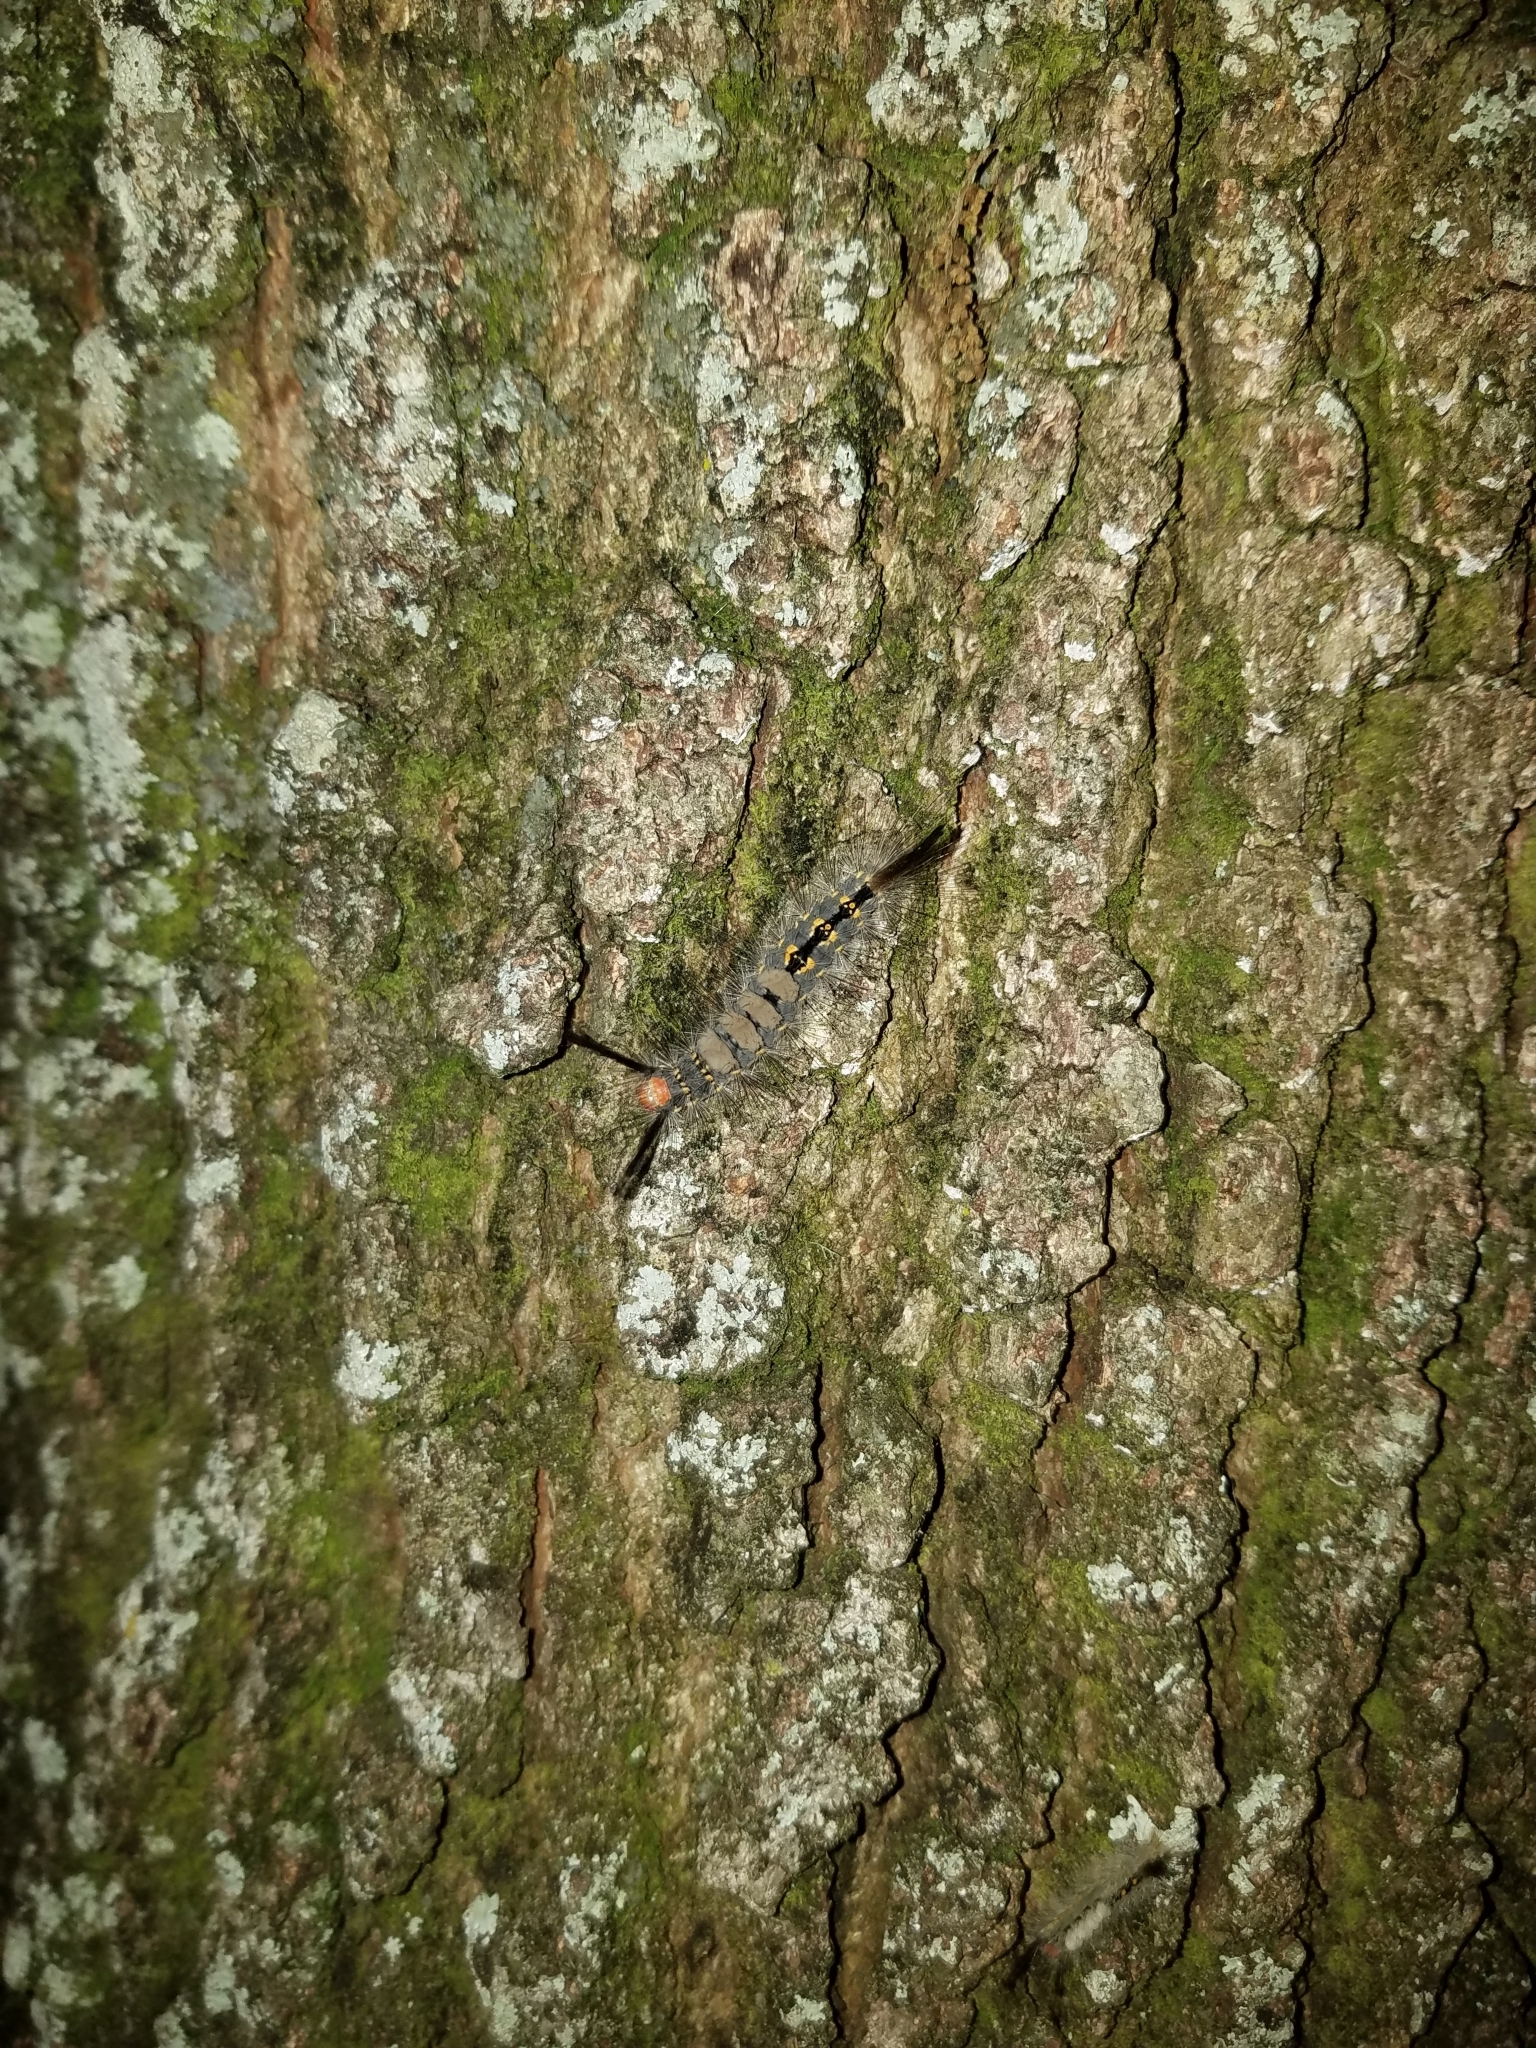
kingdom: Animalia
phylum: Arthropoda
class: Insecta
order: Lepidoptera
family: Erebidae
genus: Orgyia
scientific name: Orgyia detrita
